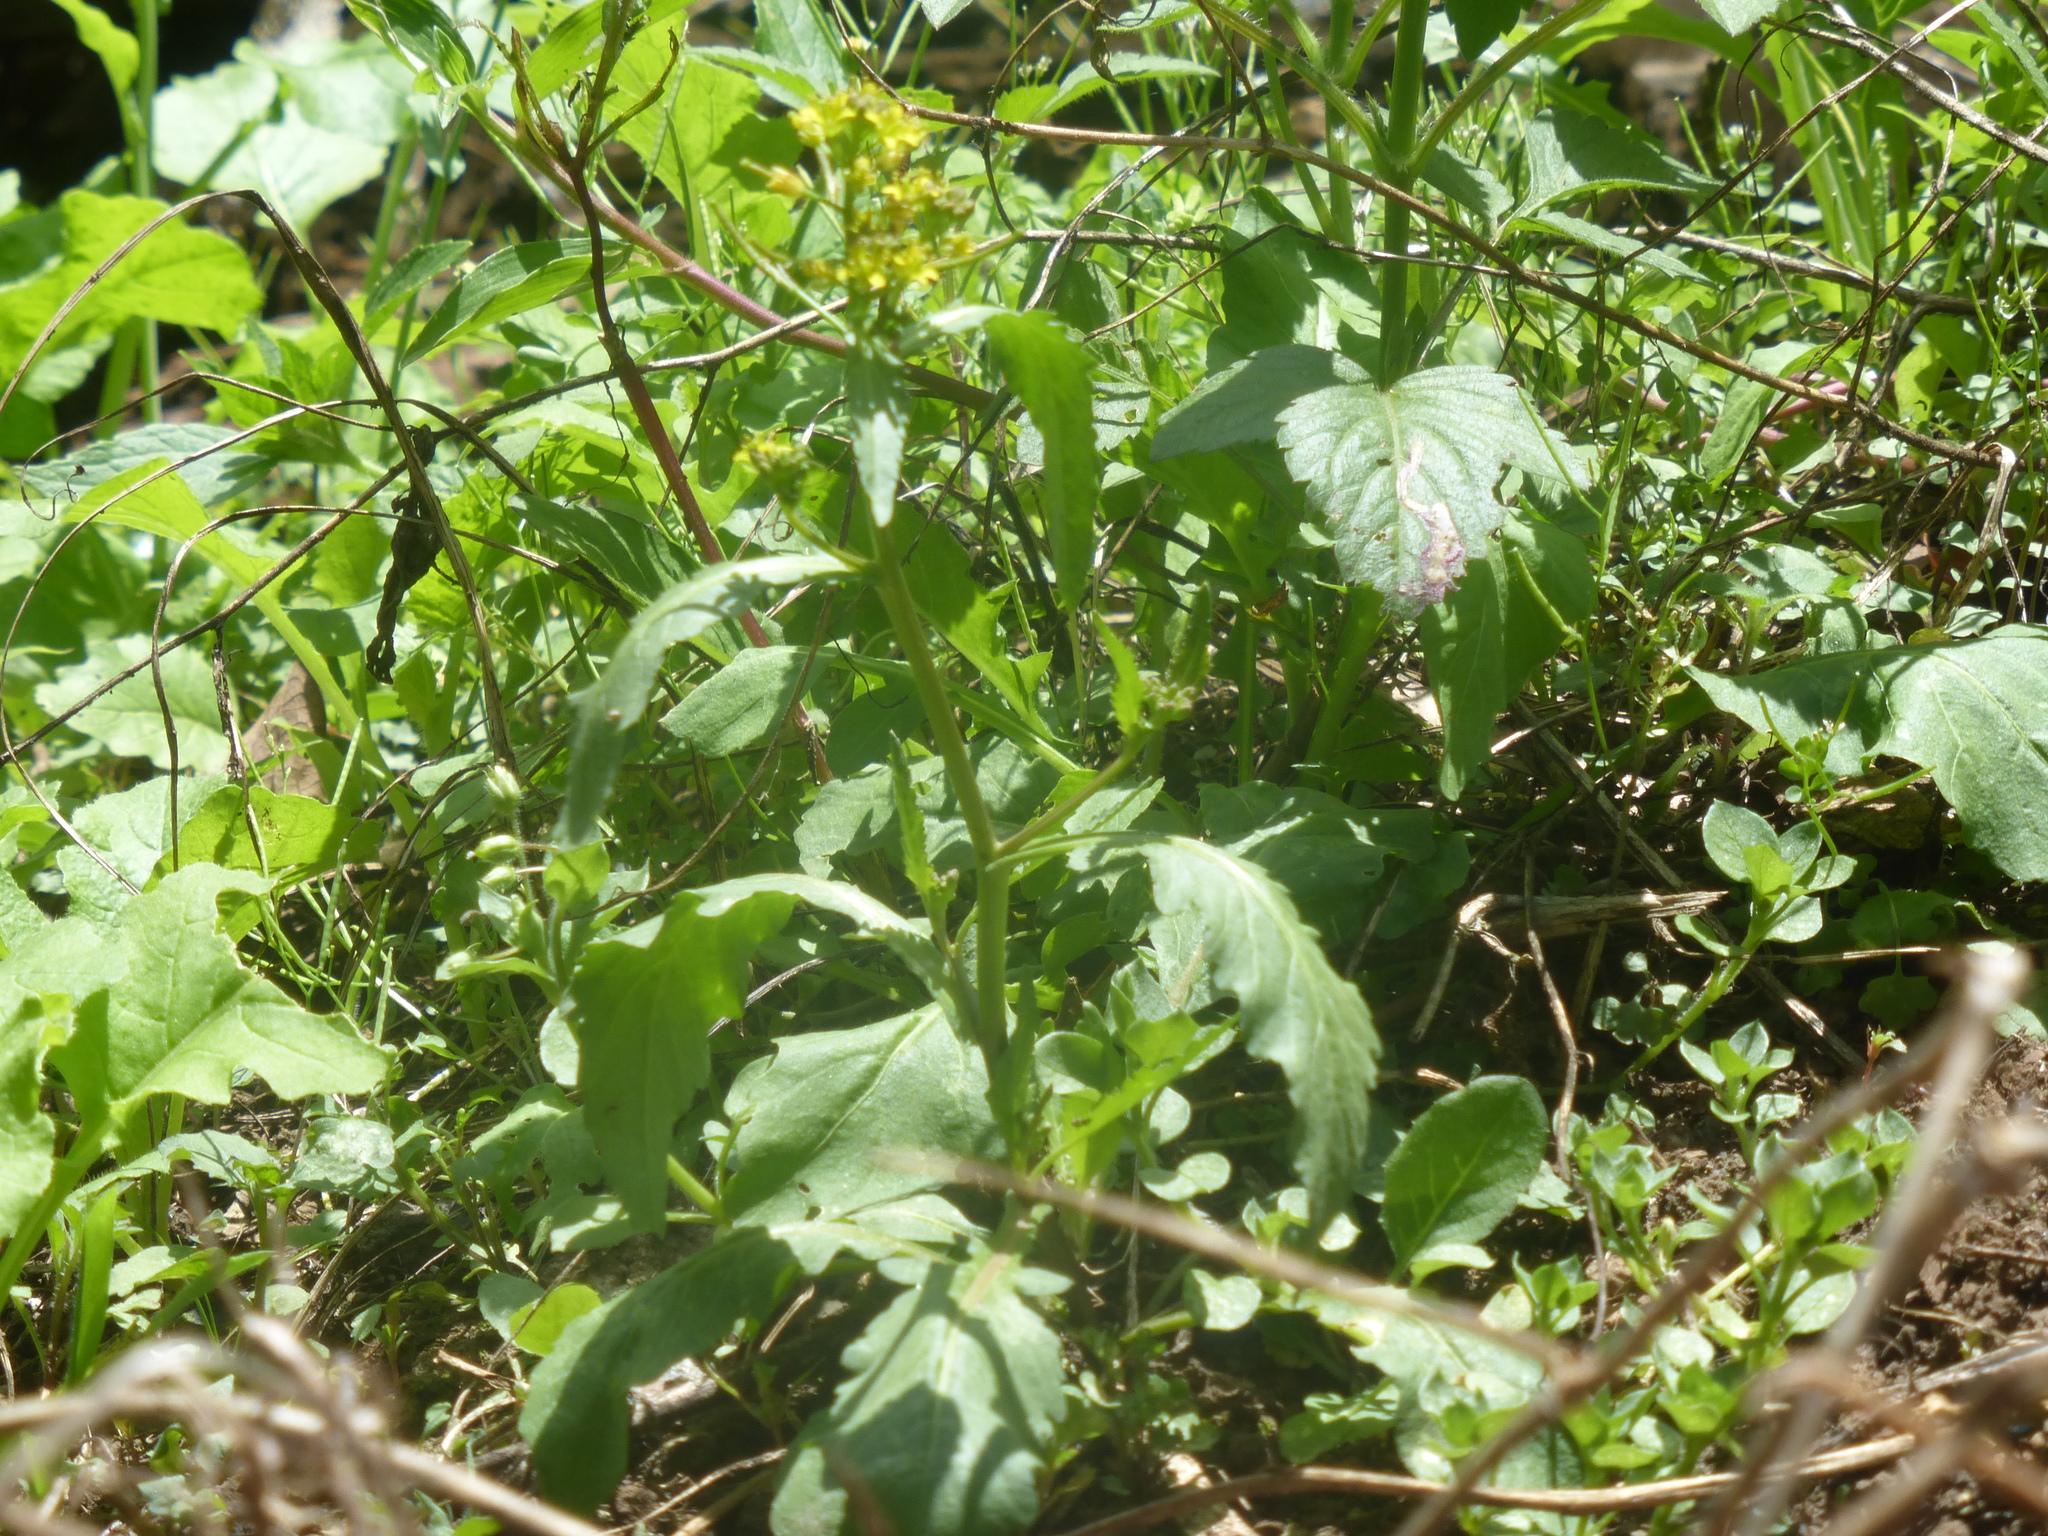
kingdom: Plantae
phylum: Tracheophyta
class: Magnoliopsida
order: Brassicales
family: Brassicaceae
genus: Rorippa
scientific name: Rorippa indica
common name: Variableleaf yellowcress
